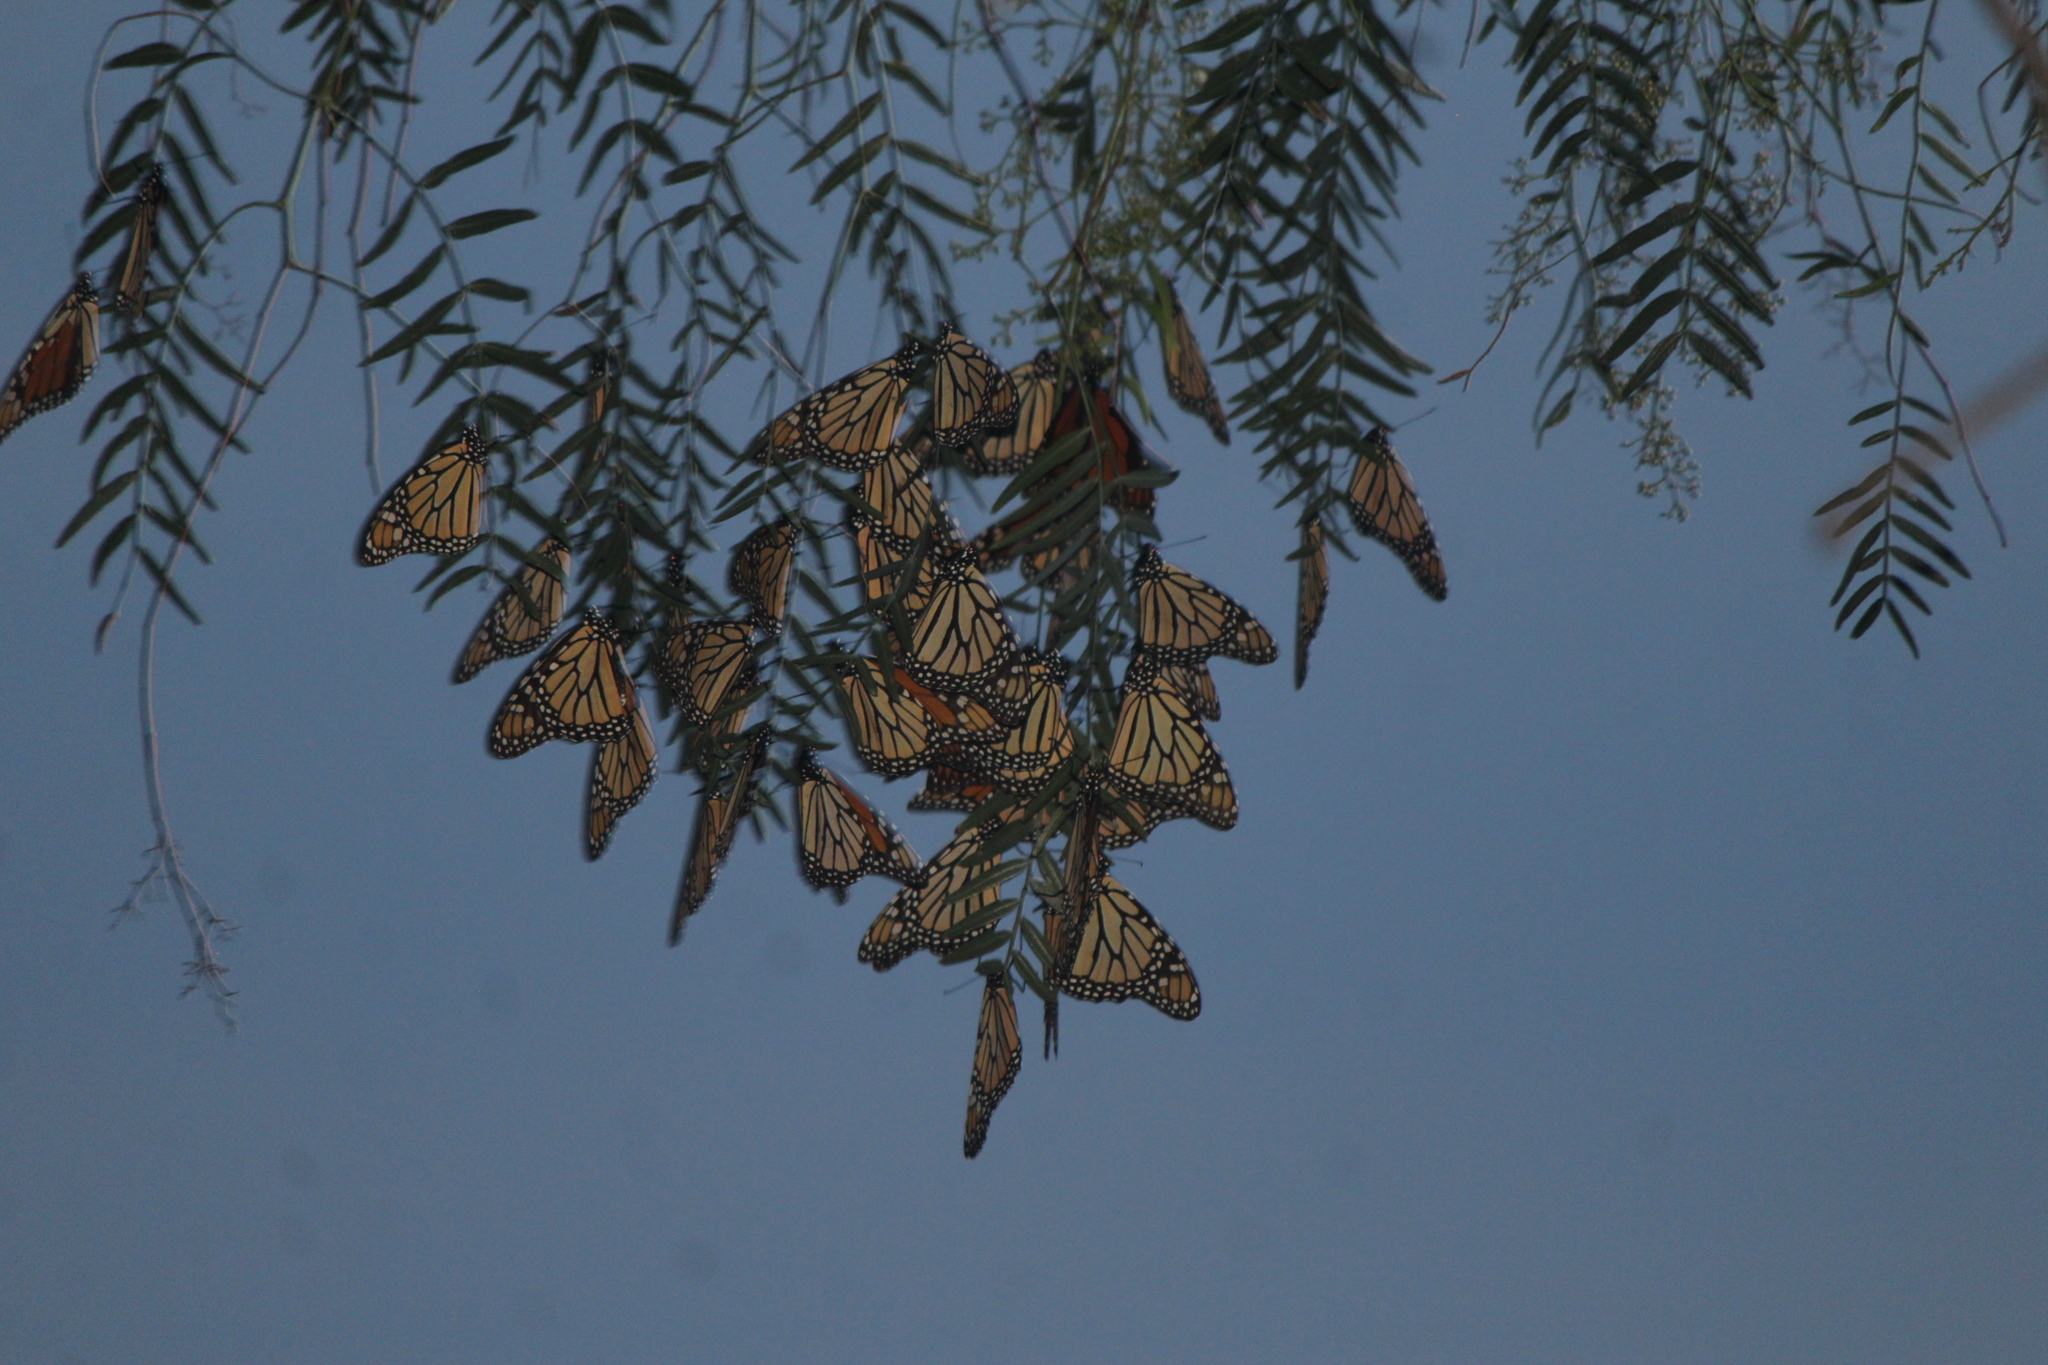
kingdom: Animalia
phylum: Arthropoda
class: Insecta
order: Lepidoptera
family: Nymphalidae
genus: Danaus
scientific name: Danaus plexippus
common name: Monarch
